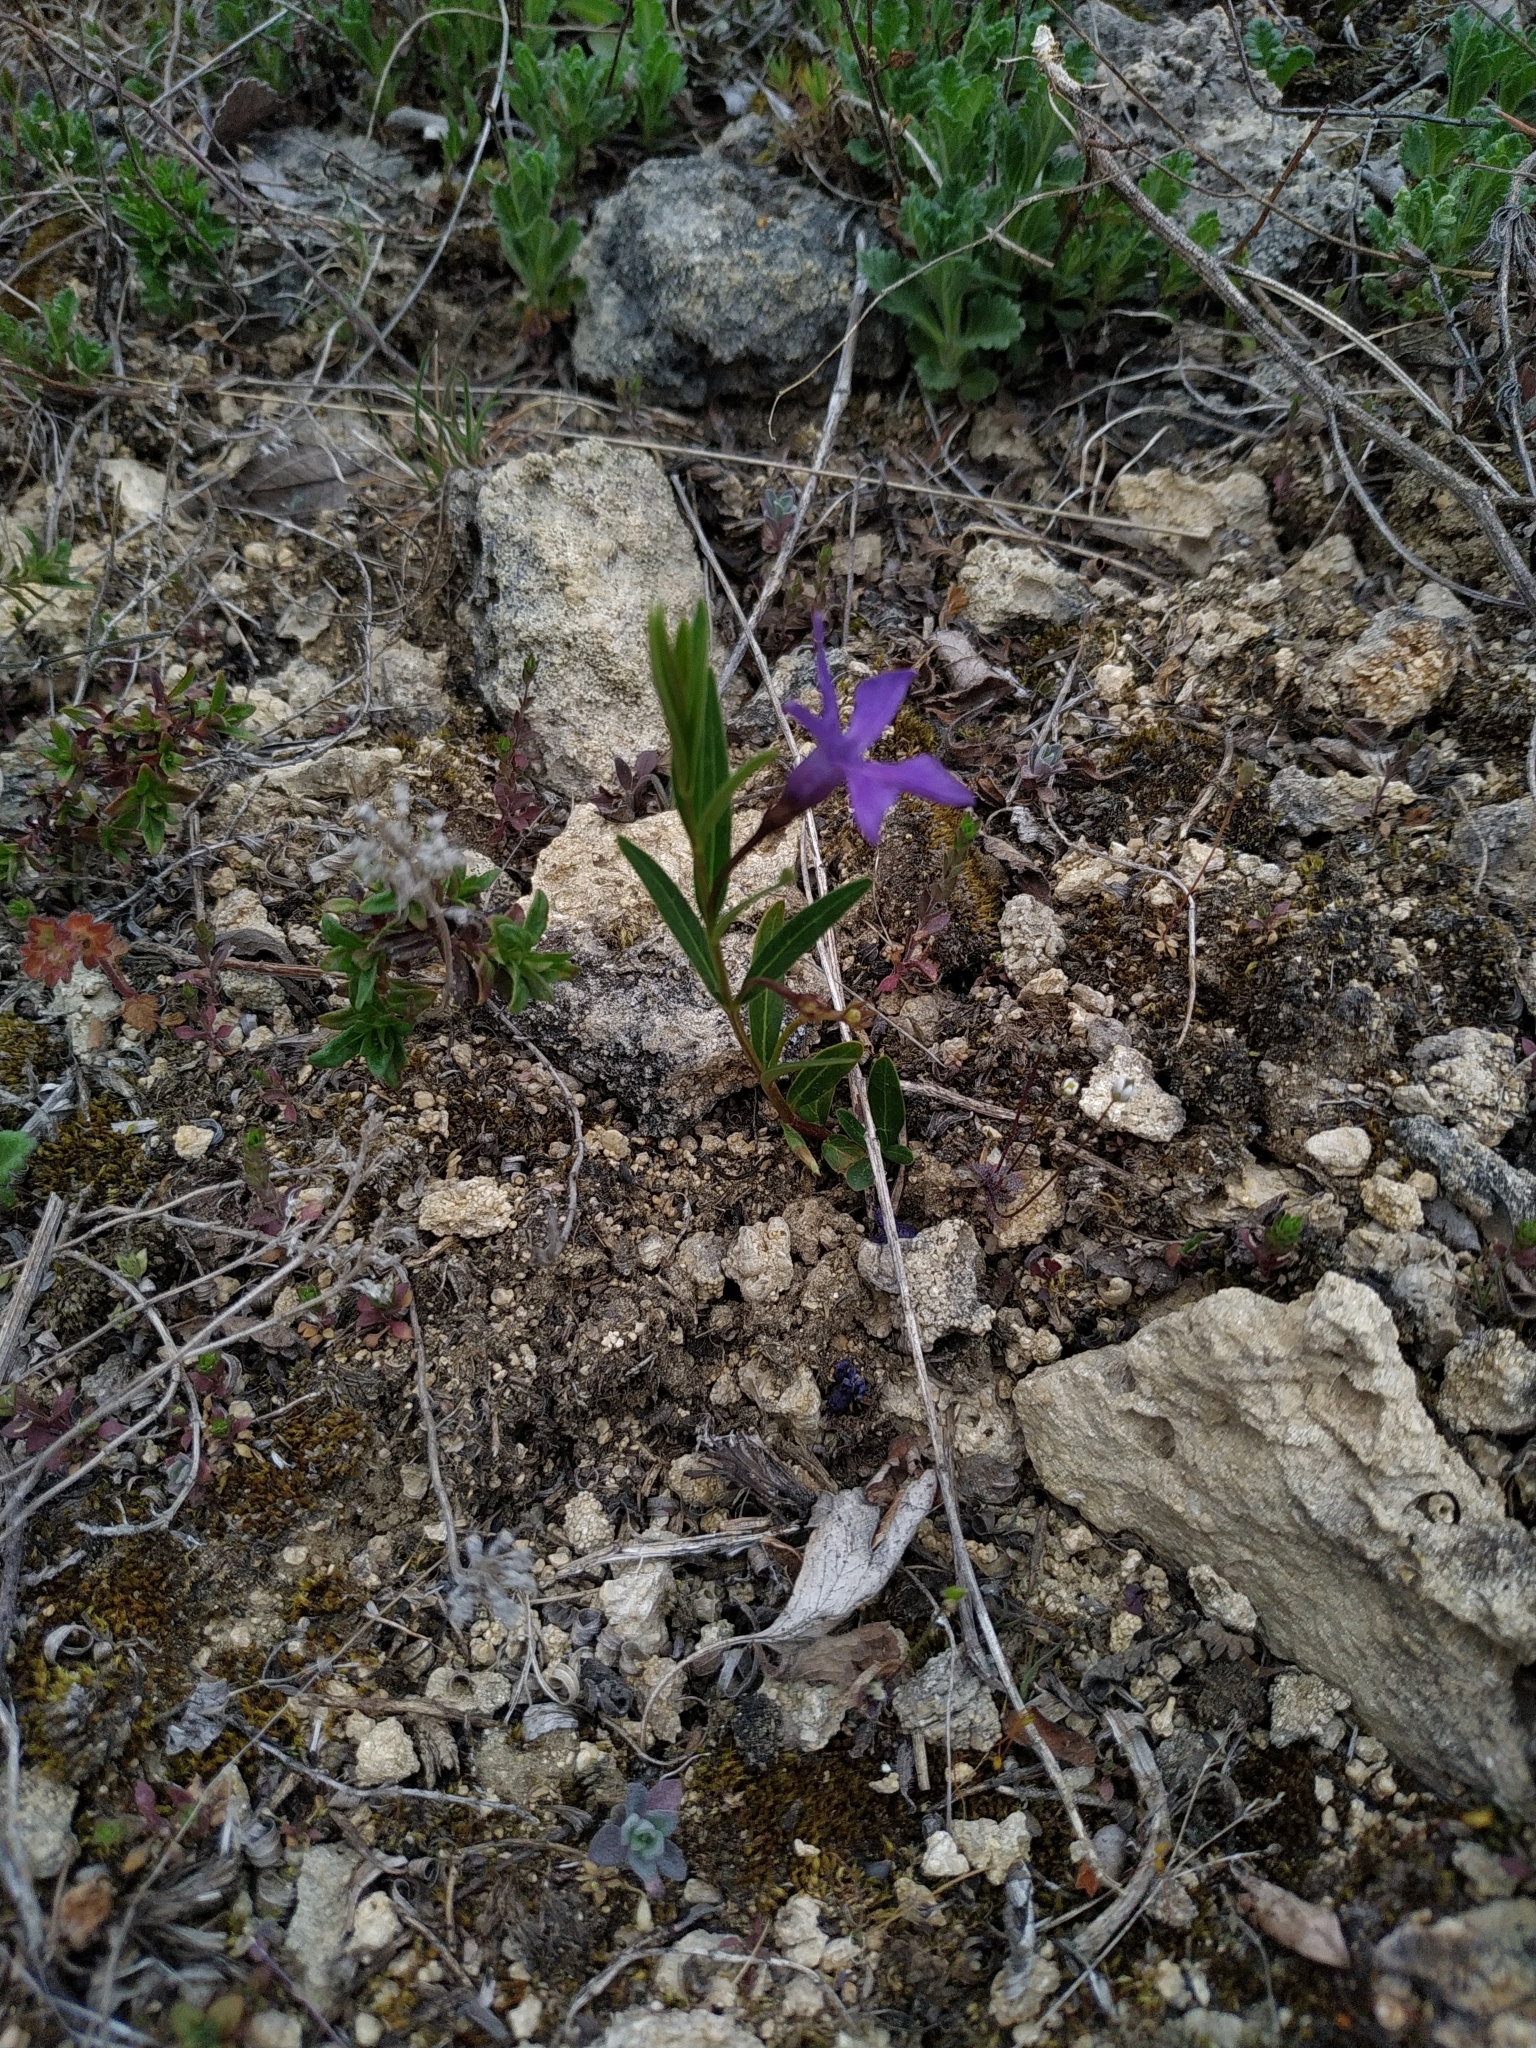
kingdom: Plantae
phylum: Tracheophyta
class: Magnoliopsida
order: Gentianales
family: Apocynaceae
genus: Vinca
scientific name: Vinca herbacea
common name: Herbaceous periwinkle
